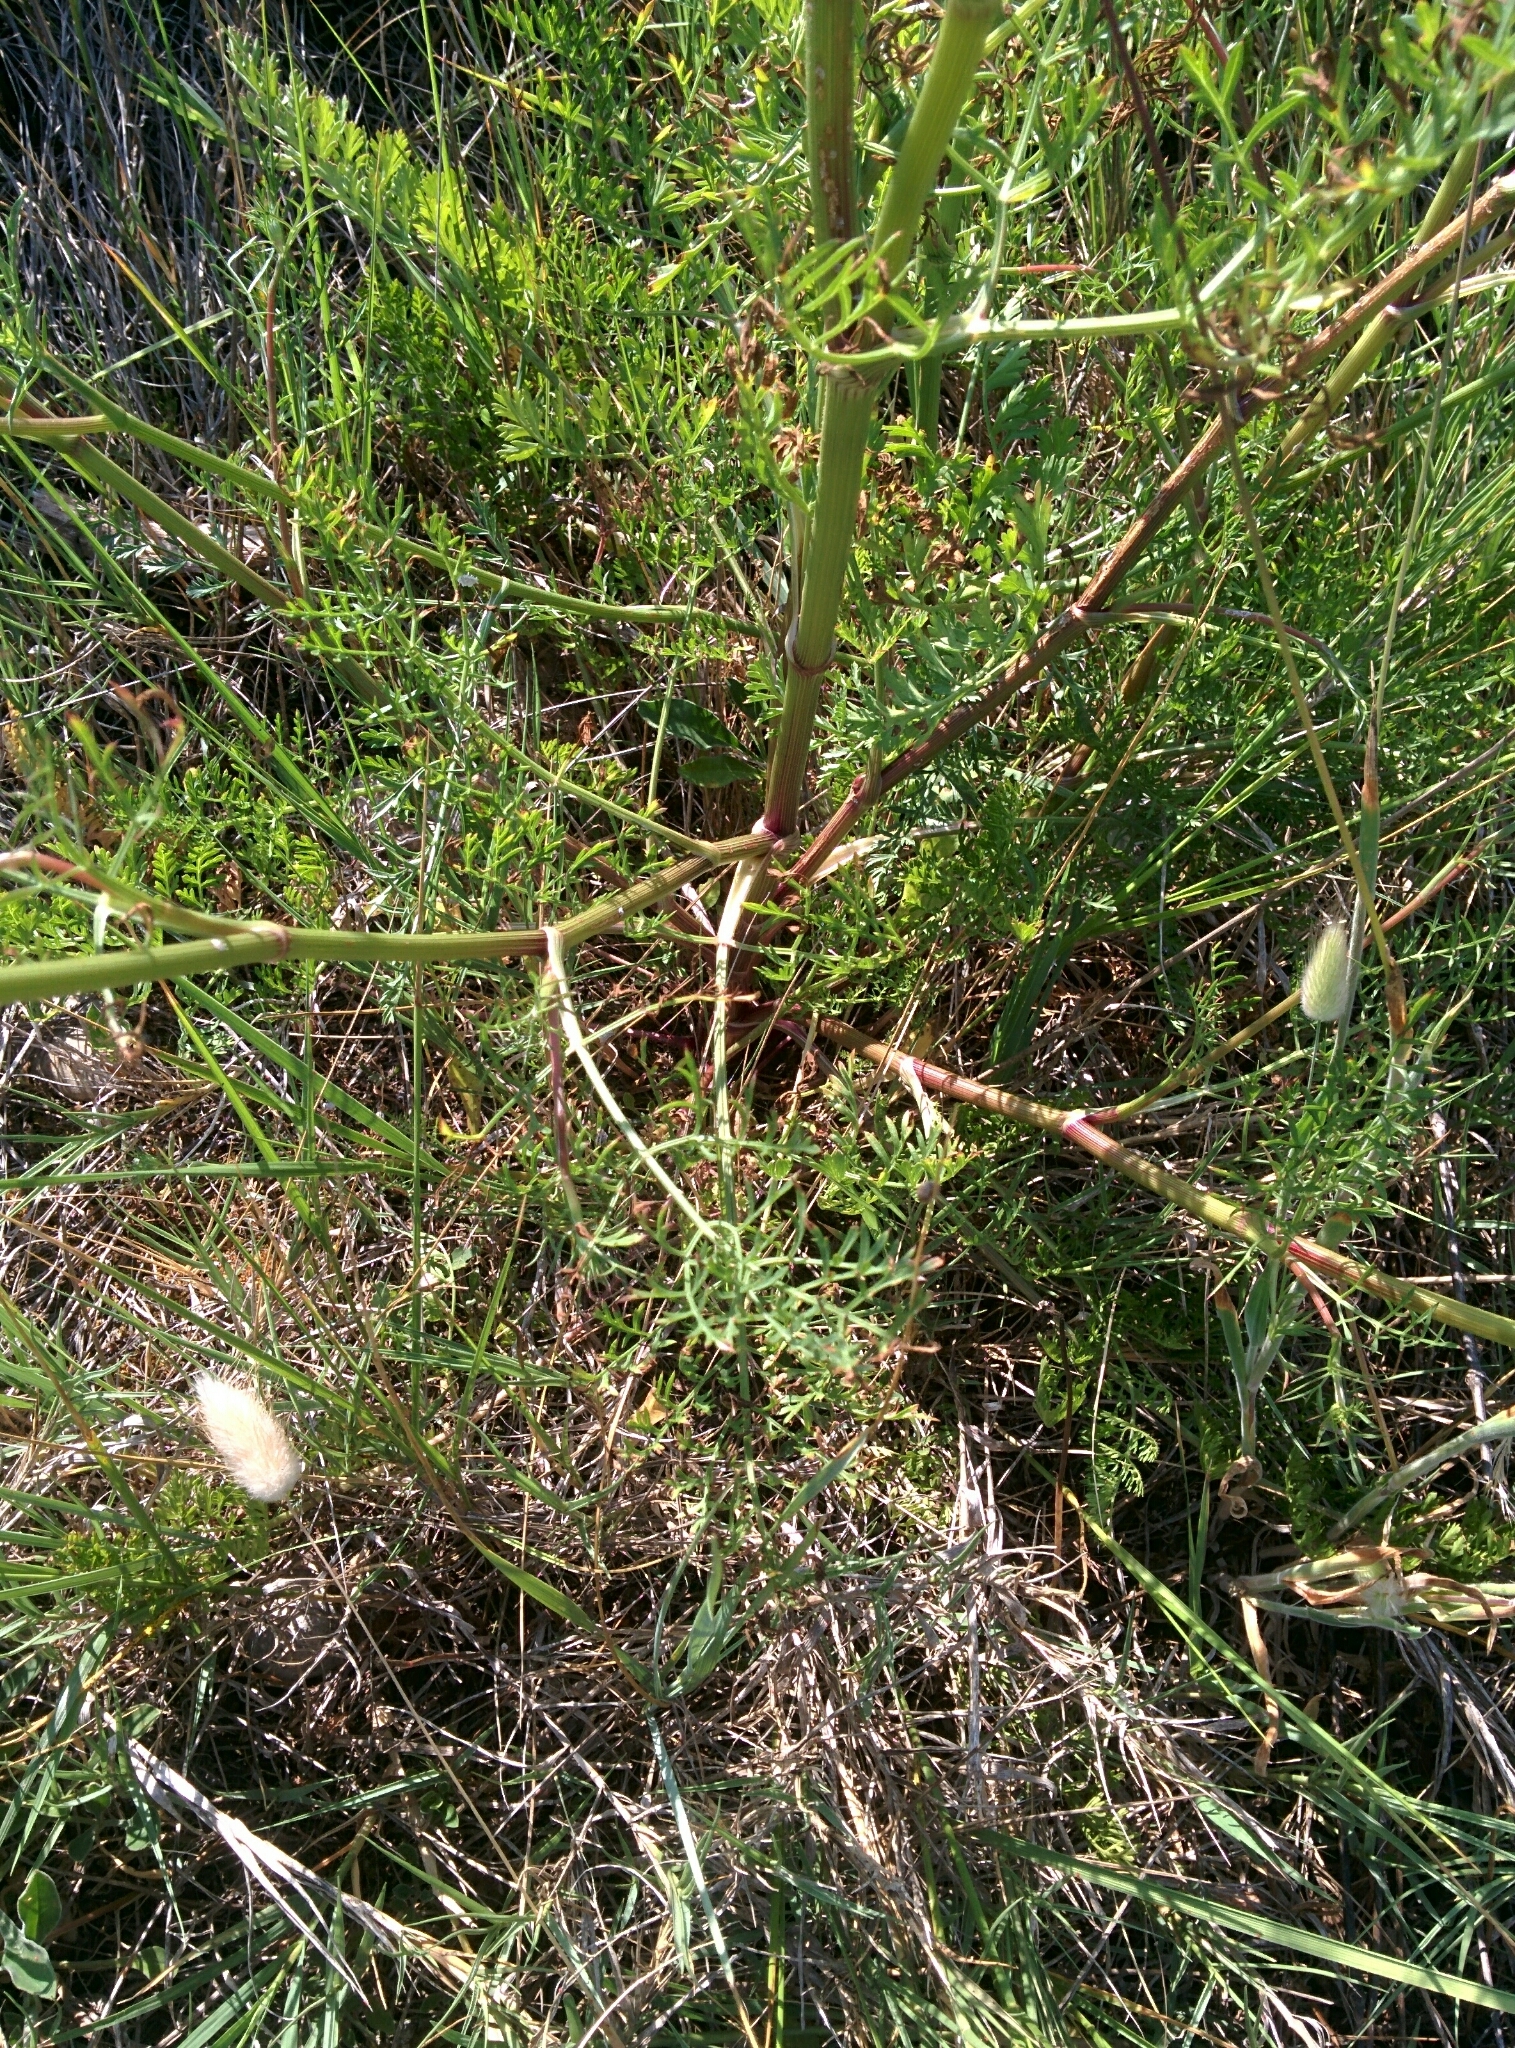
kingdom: Plantae
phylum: Tracheophyta
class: Magnoliopsida
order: Apiales
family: Apiaceae
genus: Daucus
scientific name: Daucus carota
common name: Wild carrot
